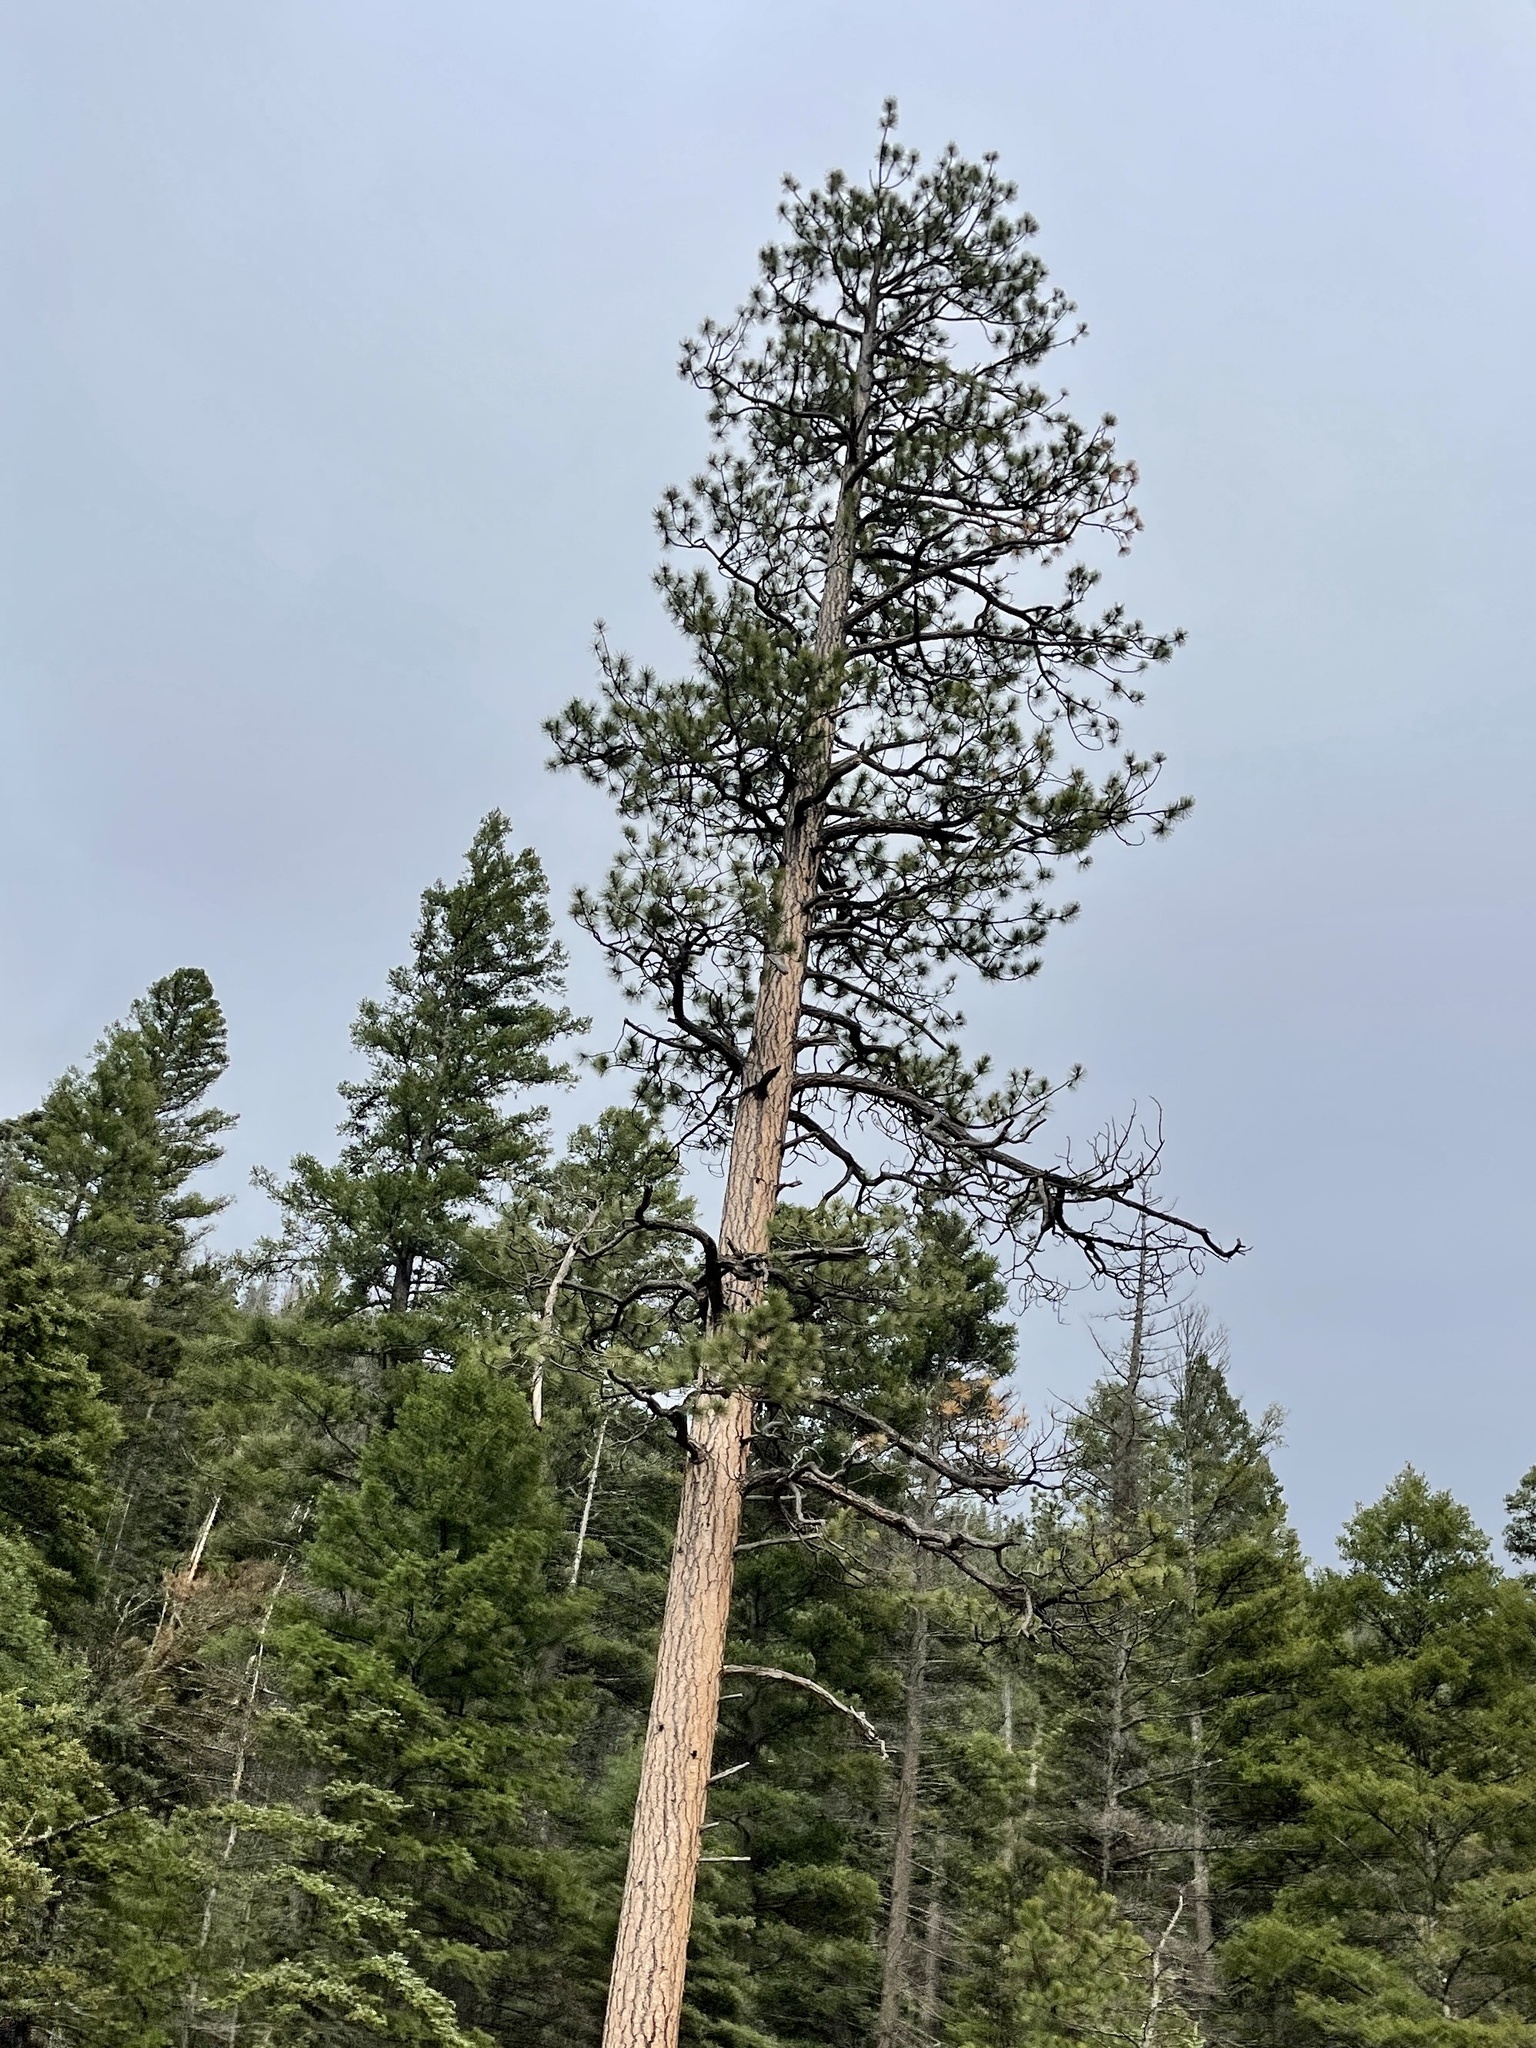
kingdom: Plantae
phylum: Tracheophyta
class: Pinopsida
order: Pinales
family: Pinaceae
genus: Pinus
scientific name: Pinus ponderosa
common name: Western yellow-pine
